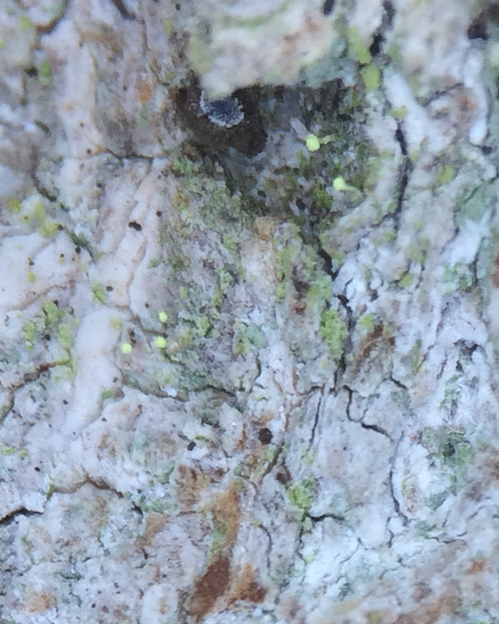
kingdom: Fungi
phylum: Ascomycota
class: Coniocybomycetes
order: Coniocybales
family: Coniocybaceae
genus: Chaenotheca
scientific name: Chaenotheca brachypoda
